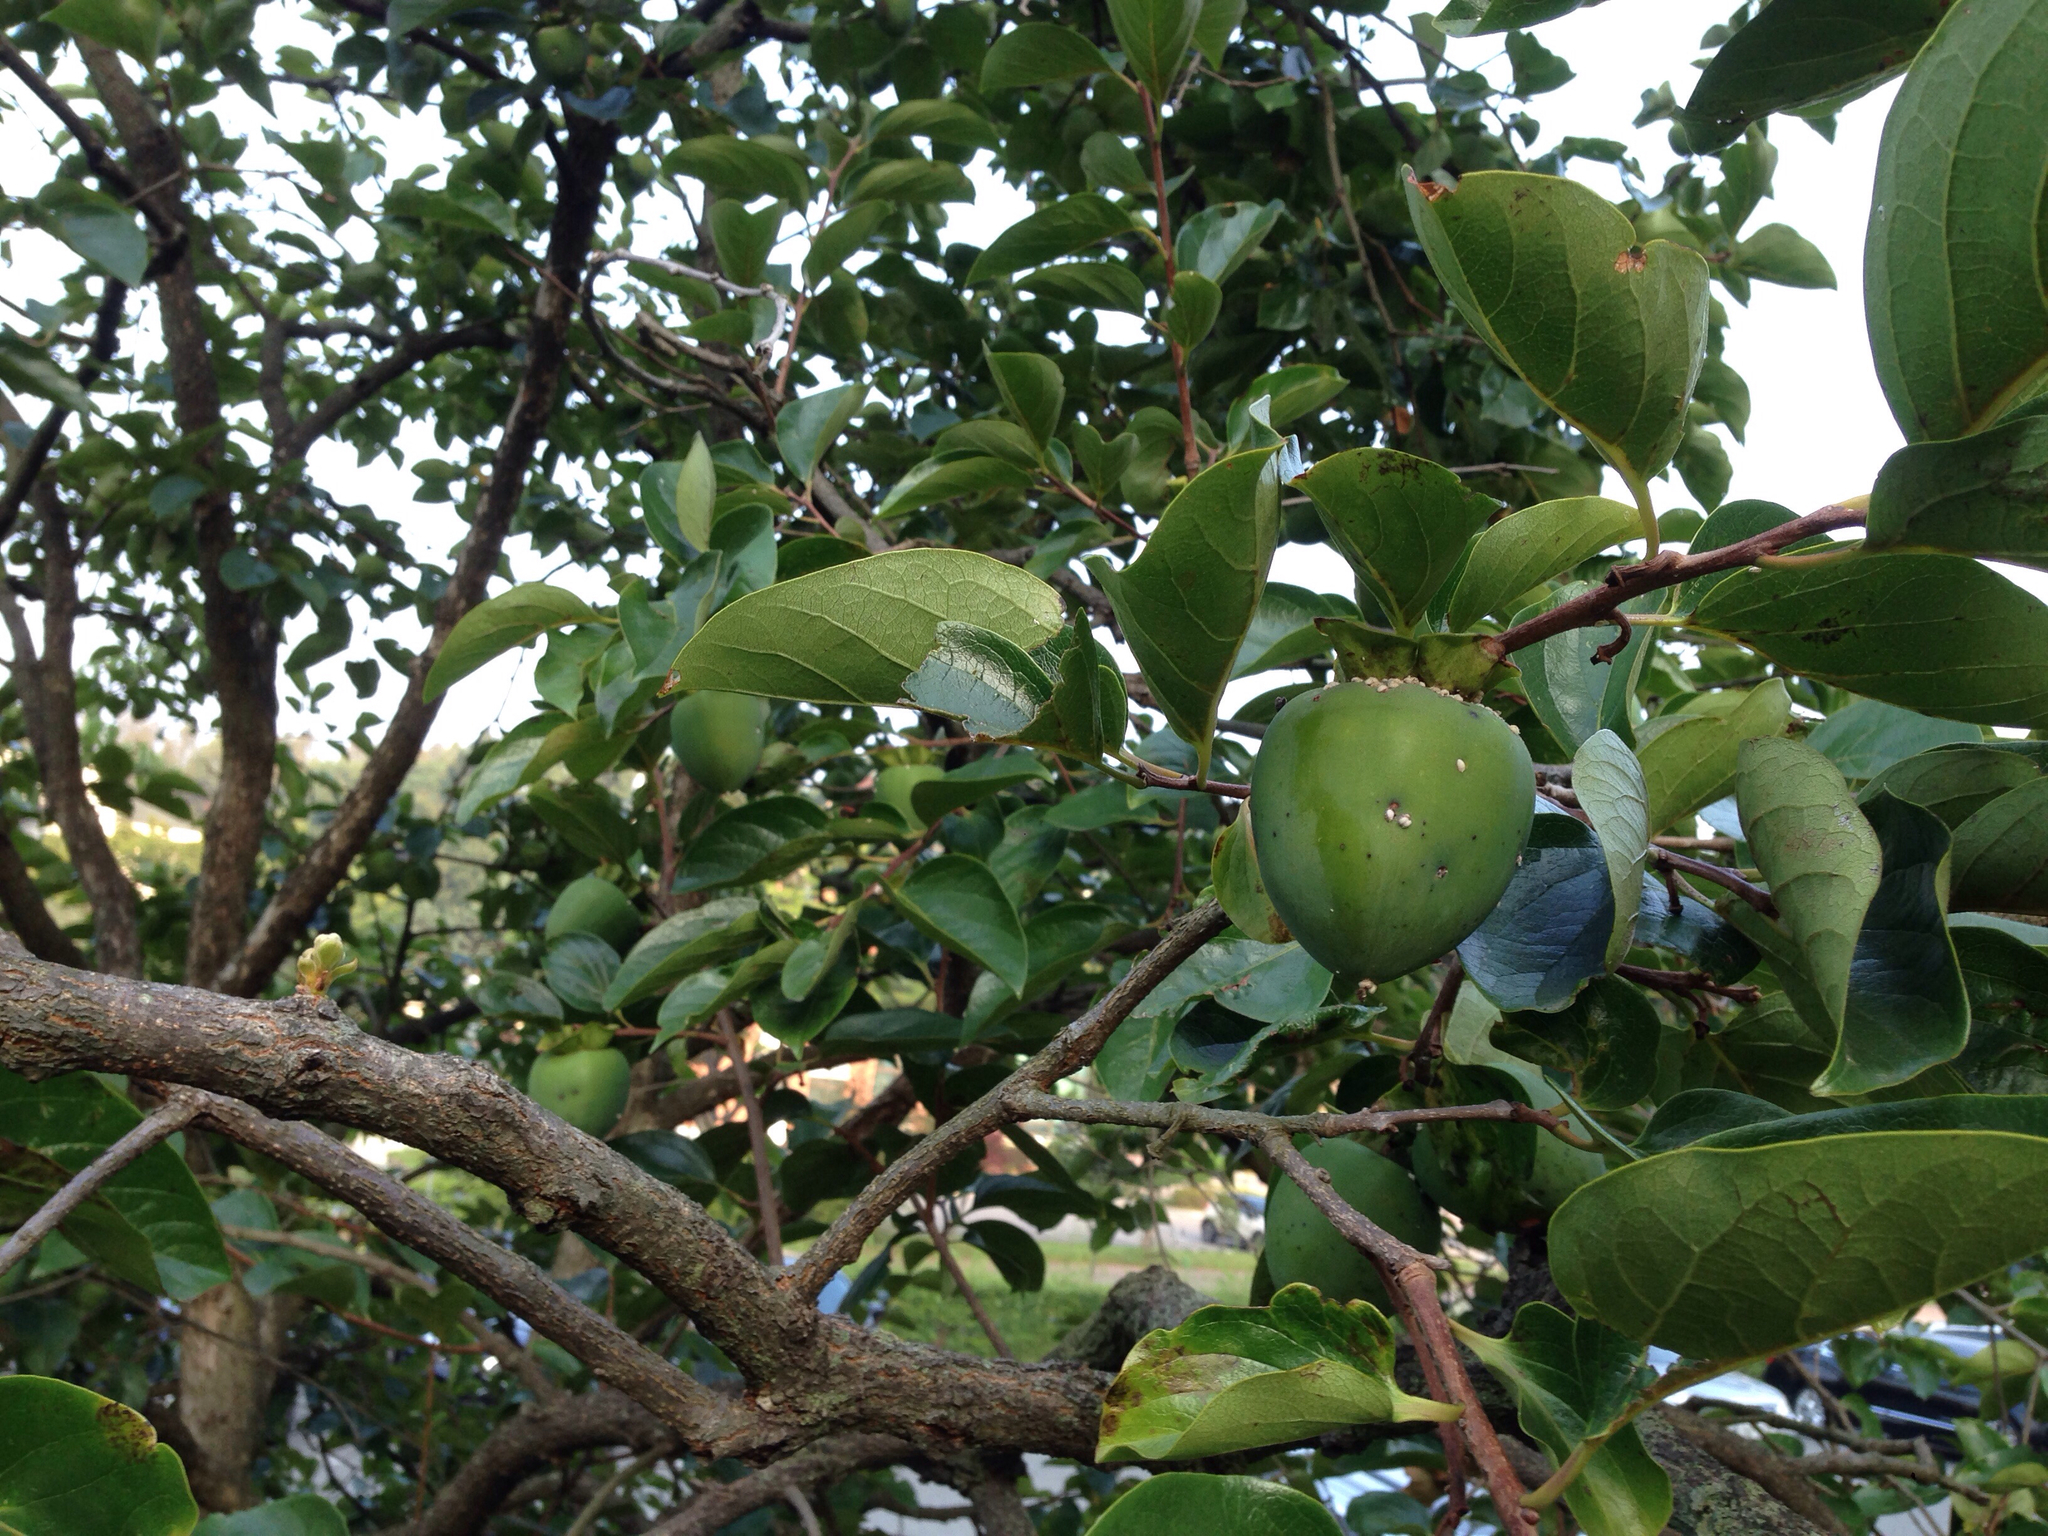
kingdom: Plantae
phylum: Tracheophyta
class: Magnoliopsida
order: Ericales
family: Ebenaceae
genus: Diospyros
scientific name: Diospyros kaki
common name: Persimmon
